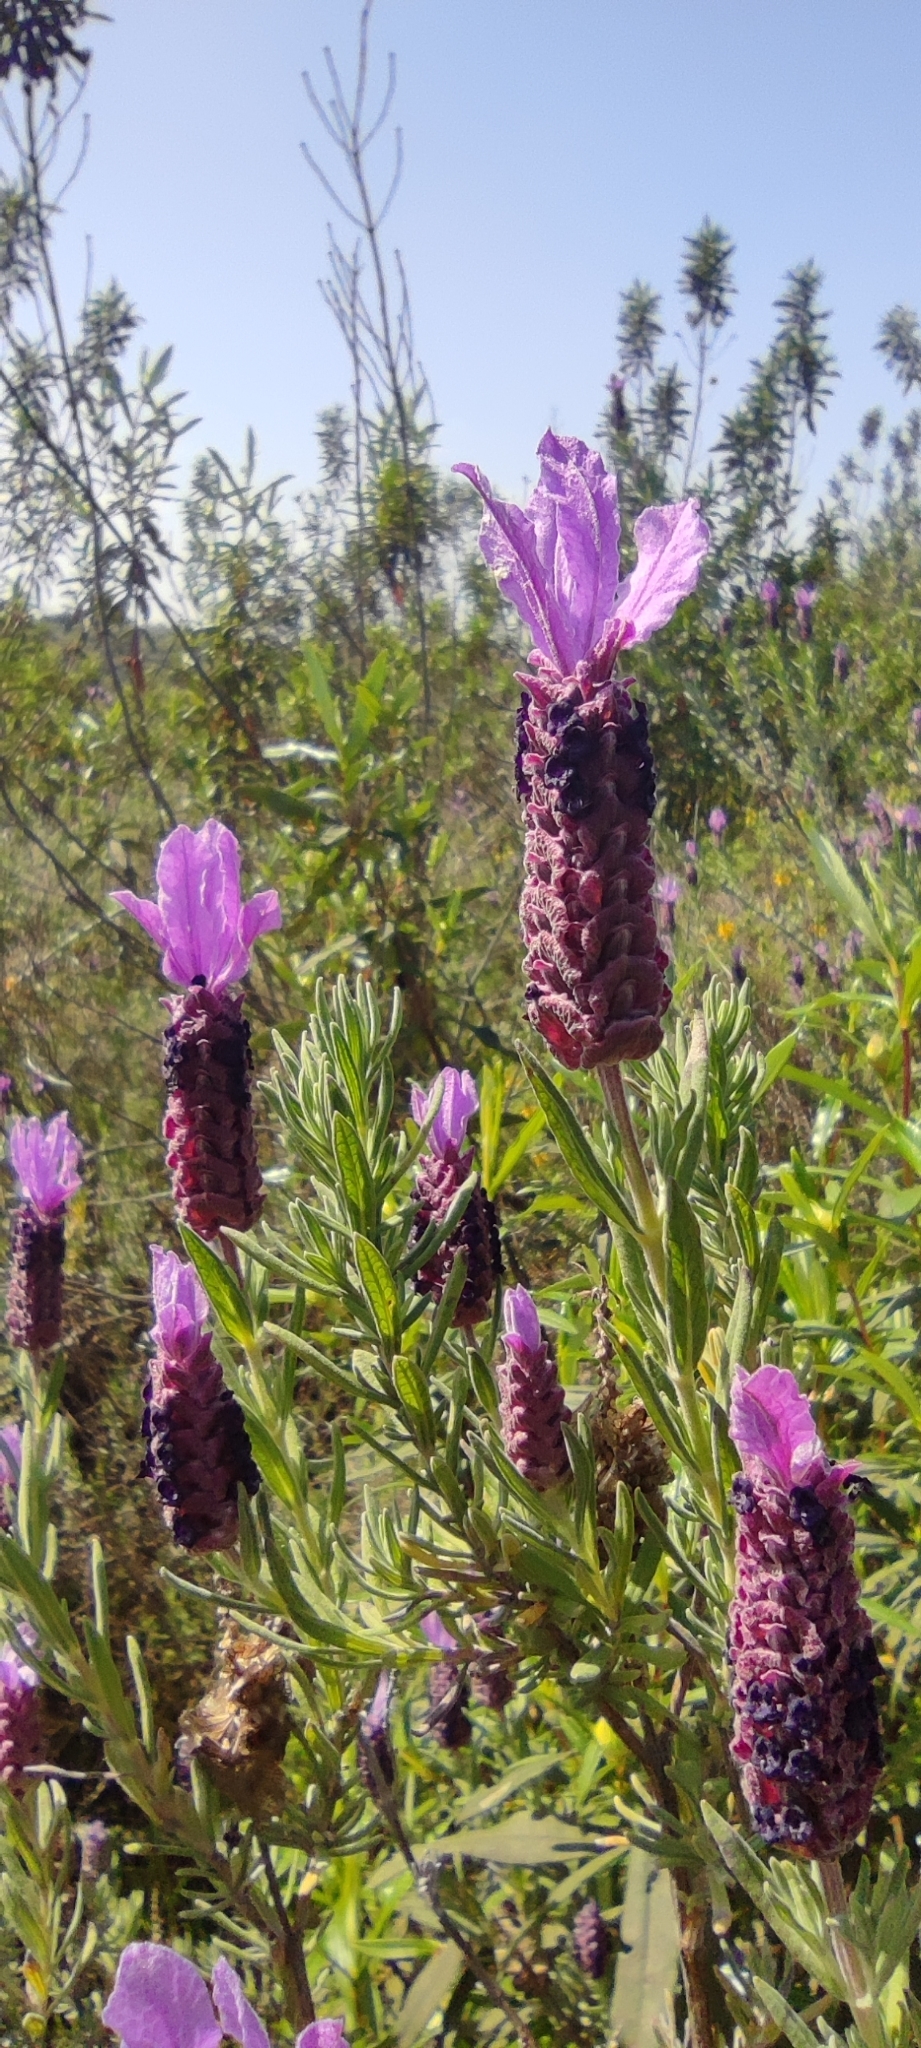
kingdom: Plantae
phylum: Tracheophyta
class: Magnoliopsida
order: Lamiales
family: Lamiaceae
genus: Lavandula
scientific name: Lavandula stoechas
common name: French lavender
